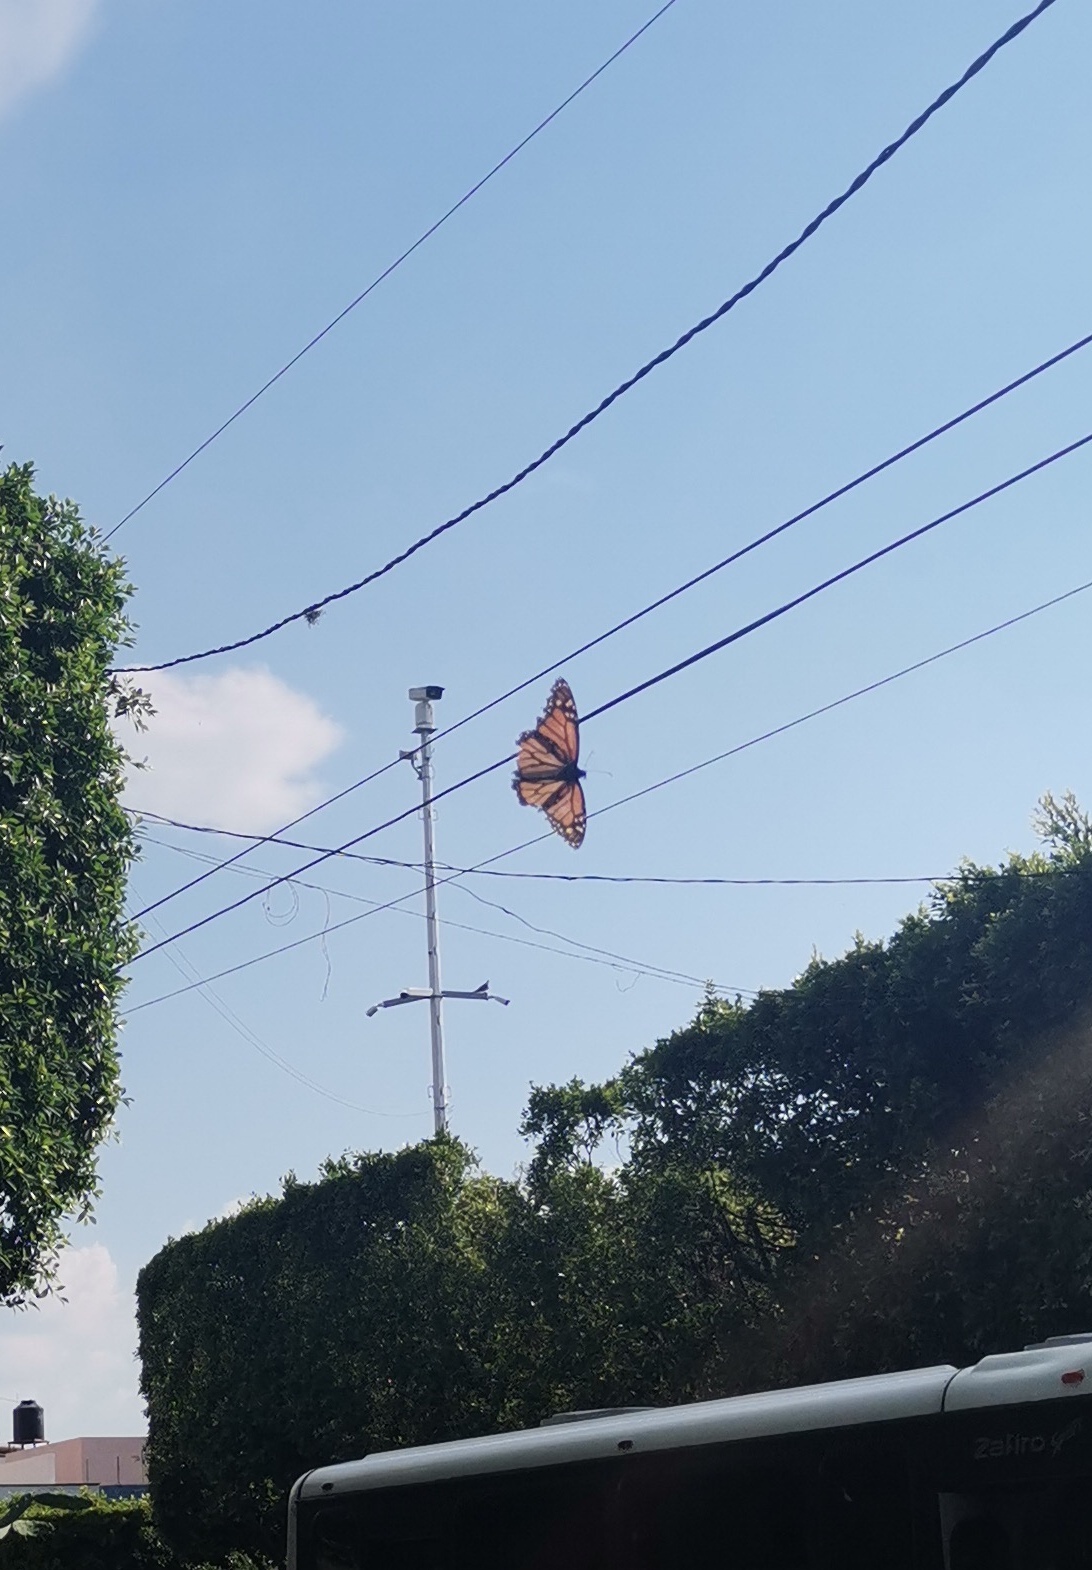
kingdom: Animalia
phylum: Arthropoda
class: Insecta
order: Lepidoptera
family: Nymphalidae
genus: Danaus
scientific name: Danaus plexippus
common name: Monarch
